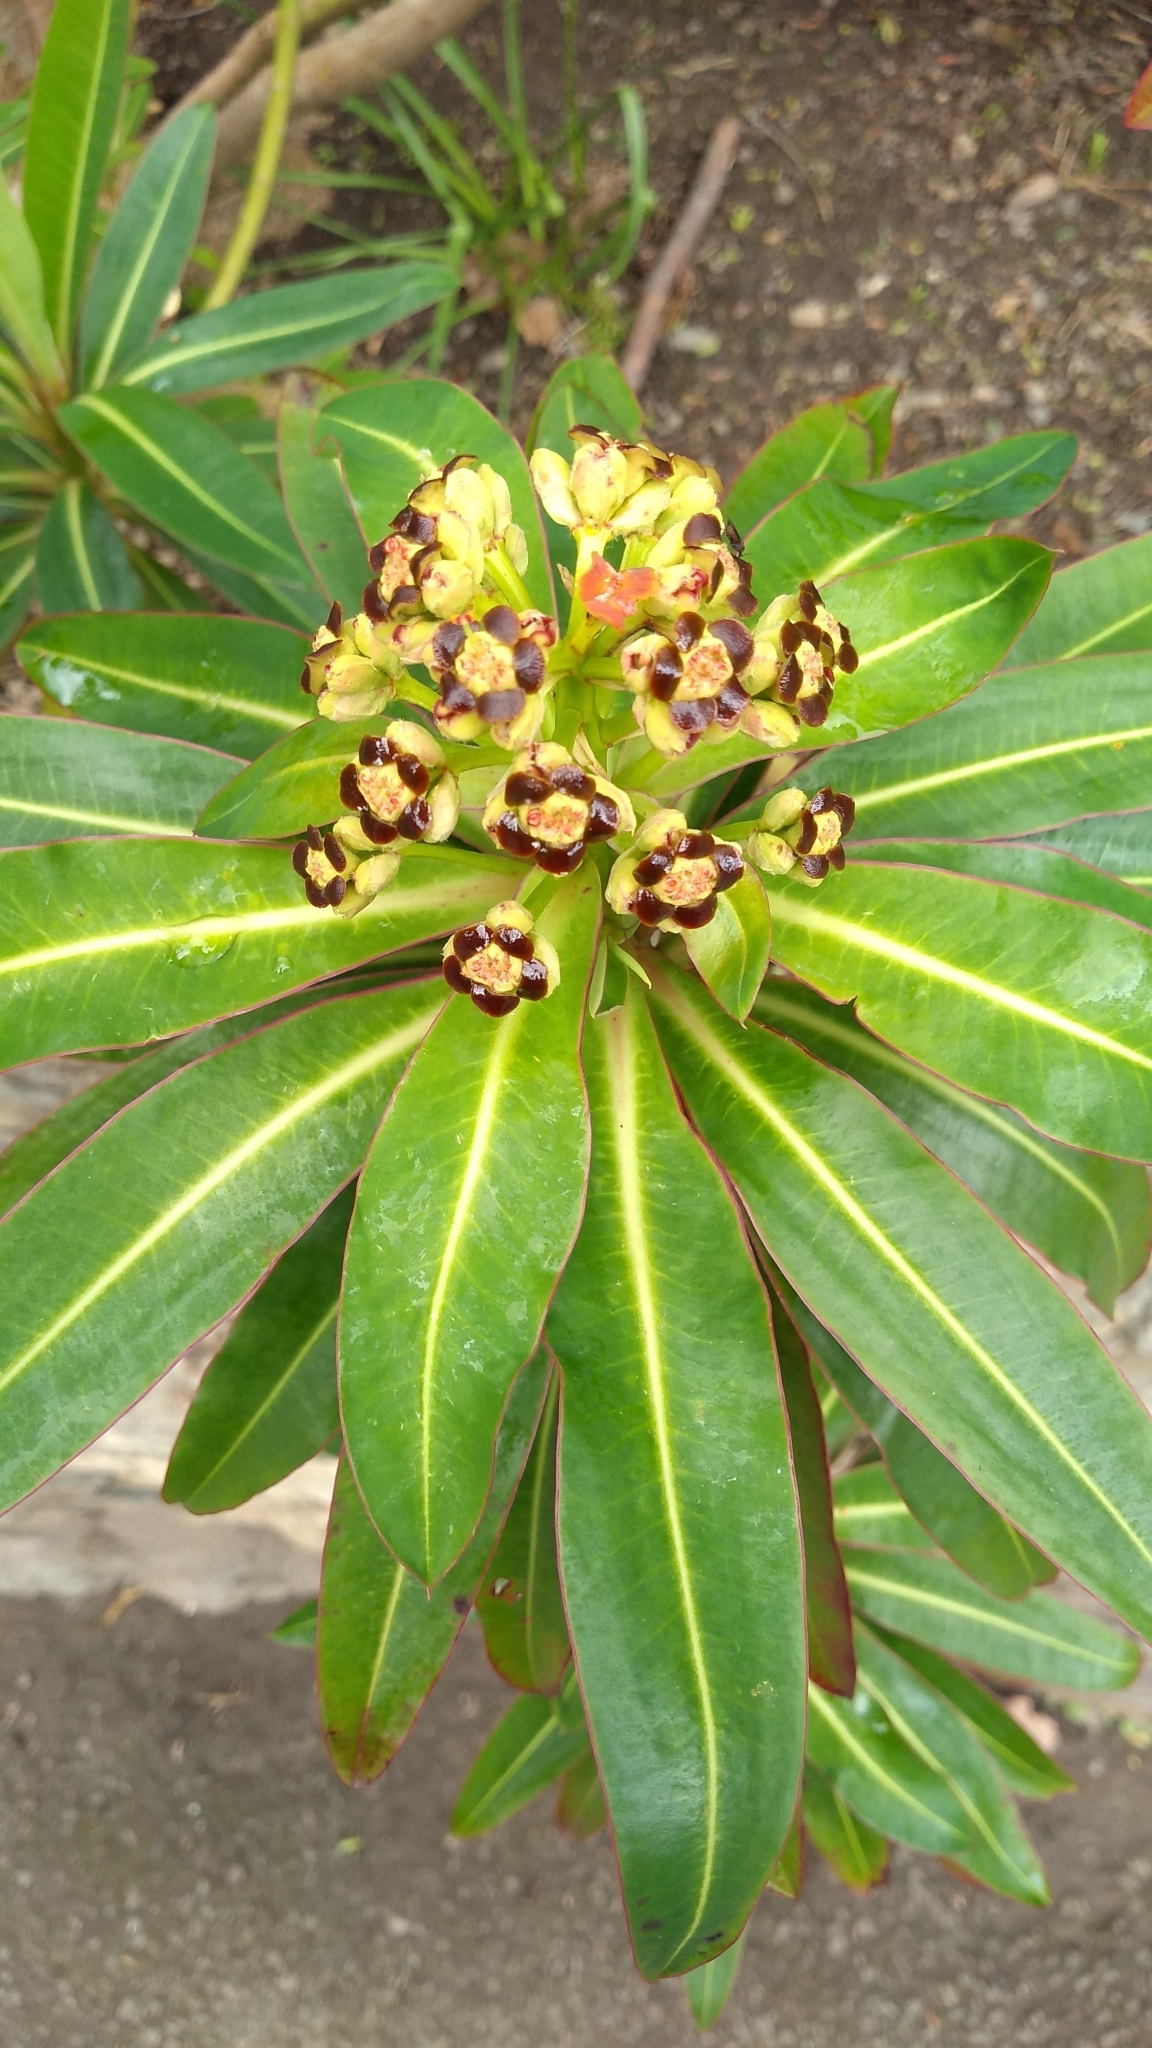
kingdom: Plantae
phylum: Tracheophyta
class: Magnoliopsida
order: Malpighiales
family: Euphorbiaceae
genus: Euphorbia
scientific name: Euphorbia mellifera
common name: Canary spurge
